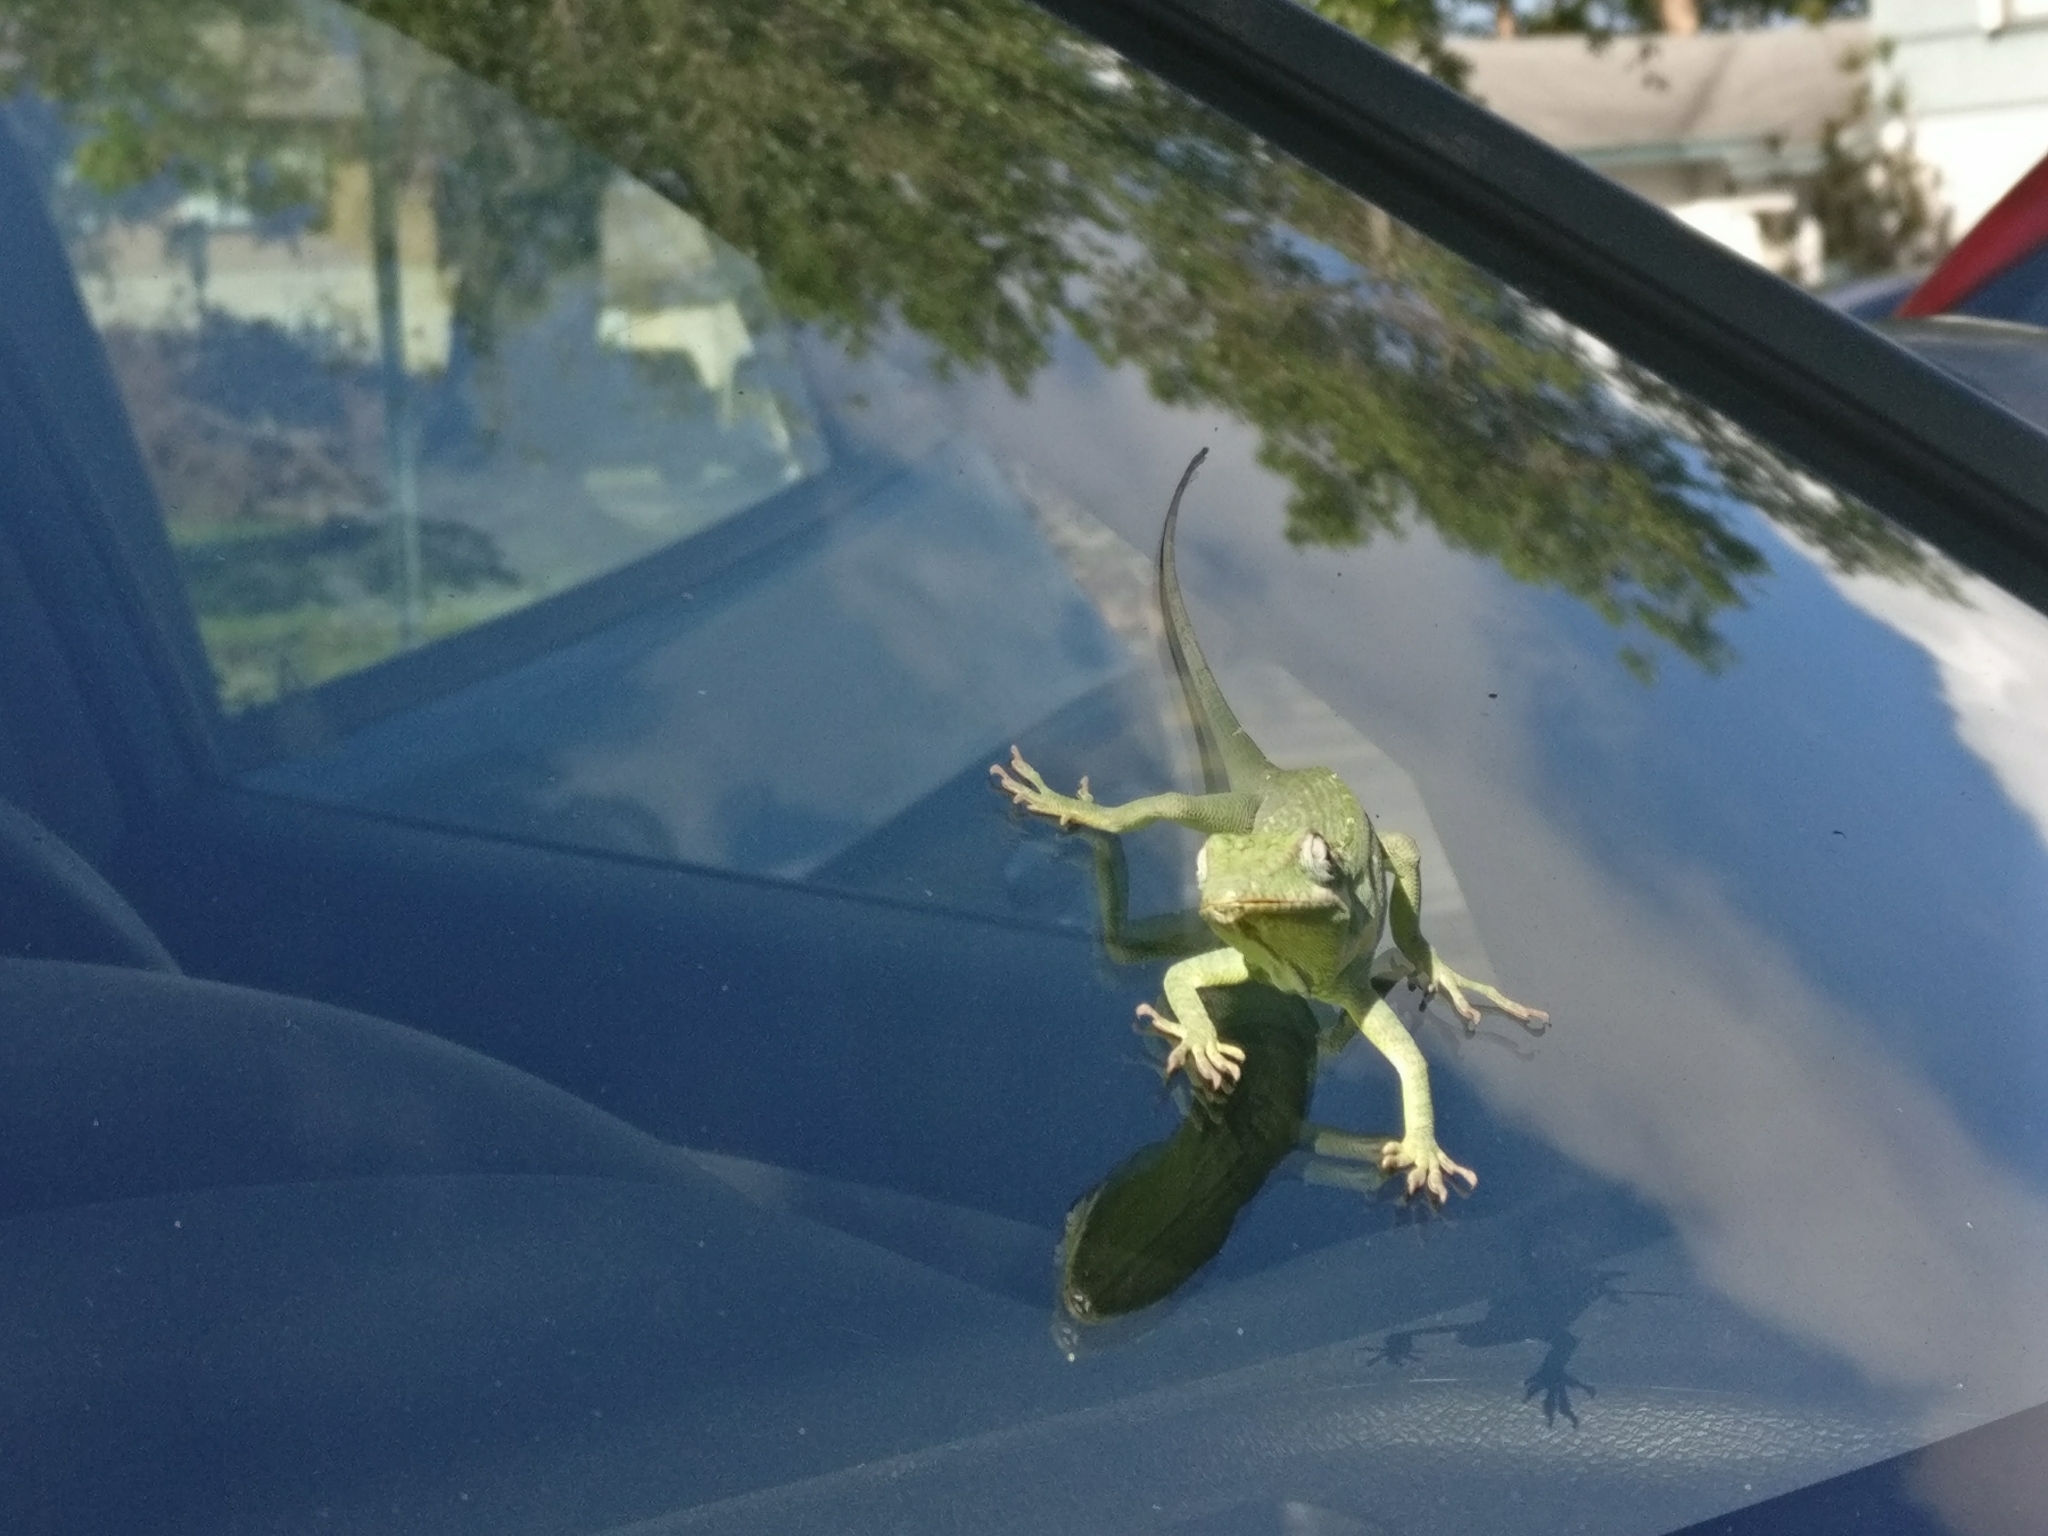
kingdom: Animalia
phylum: Chordata
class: Squamata
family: Dactyloidae
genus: Anolis
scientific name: Anolis equestris
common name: Knight anole
